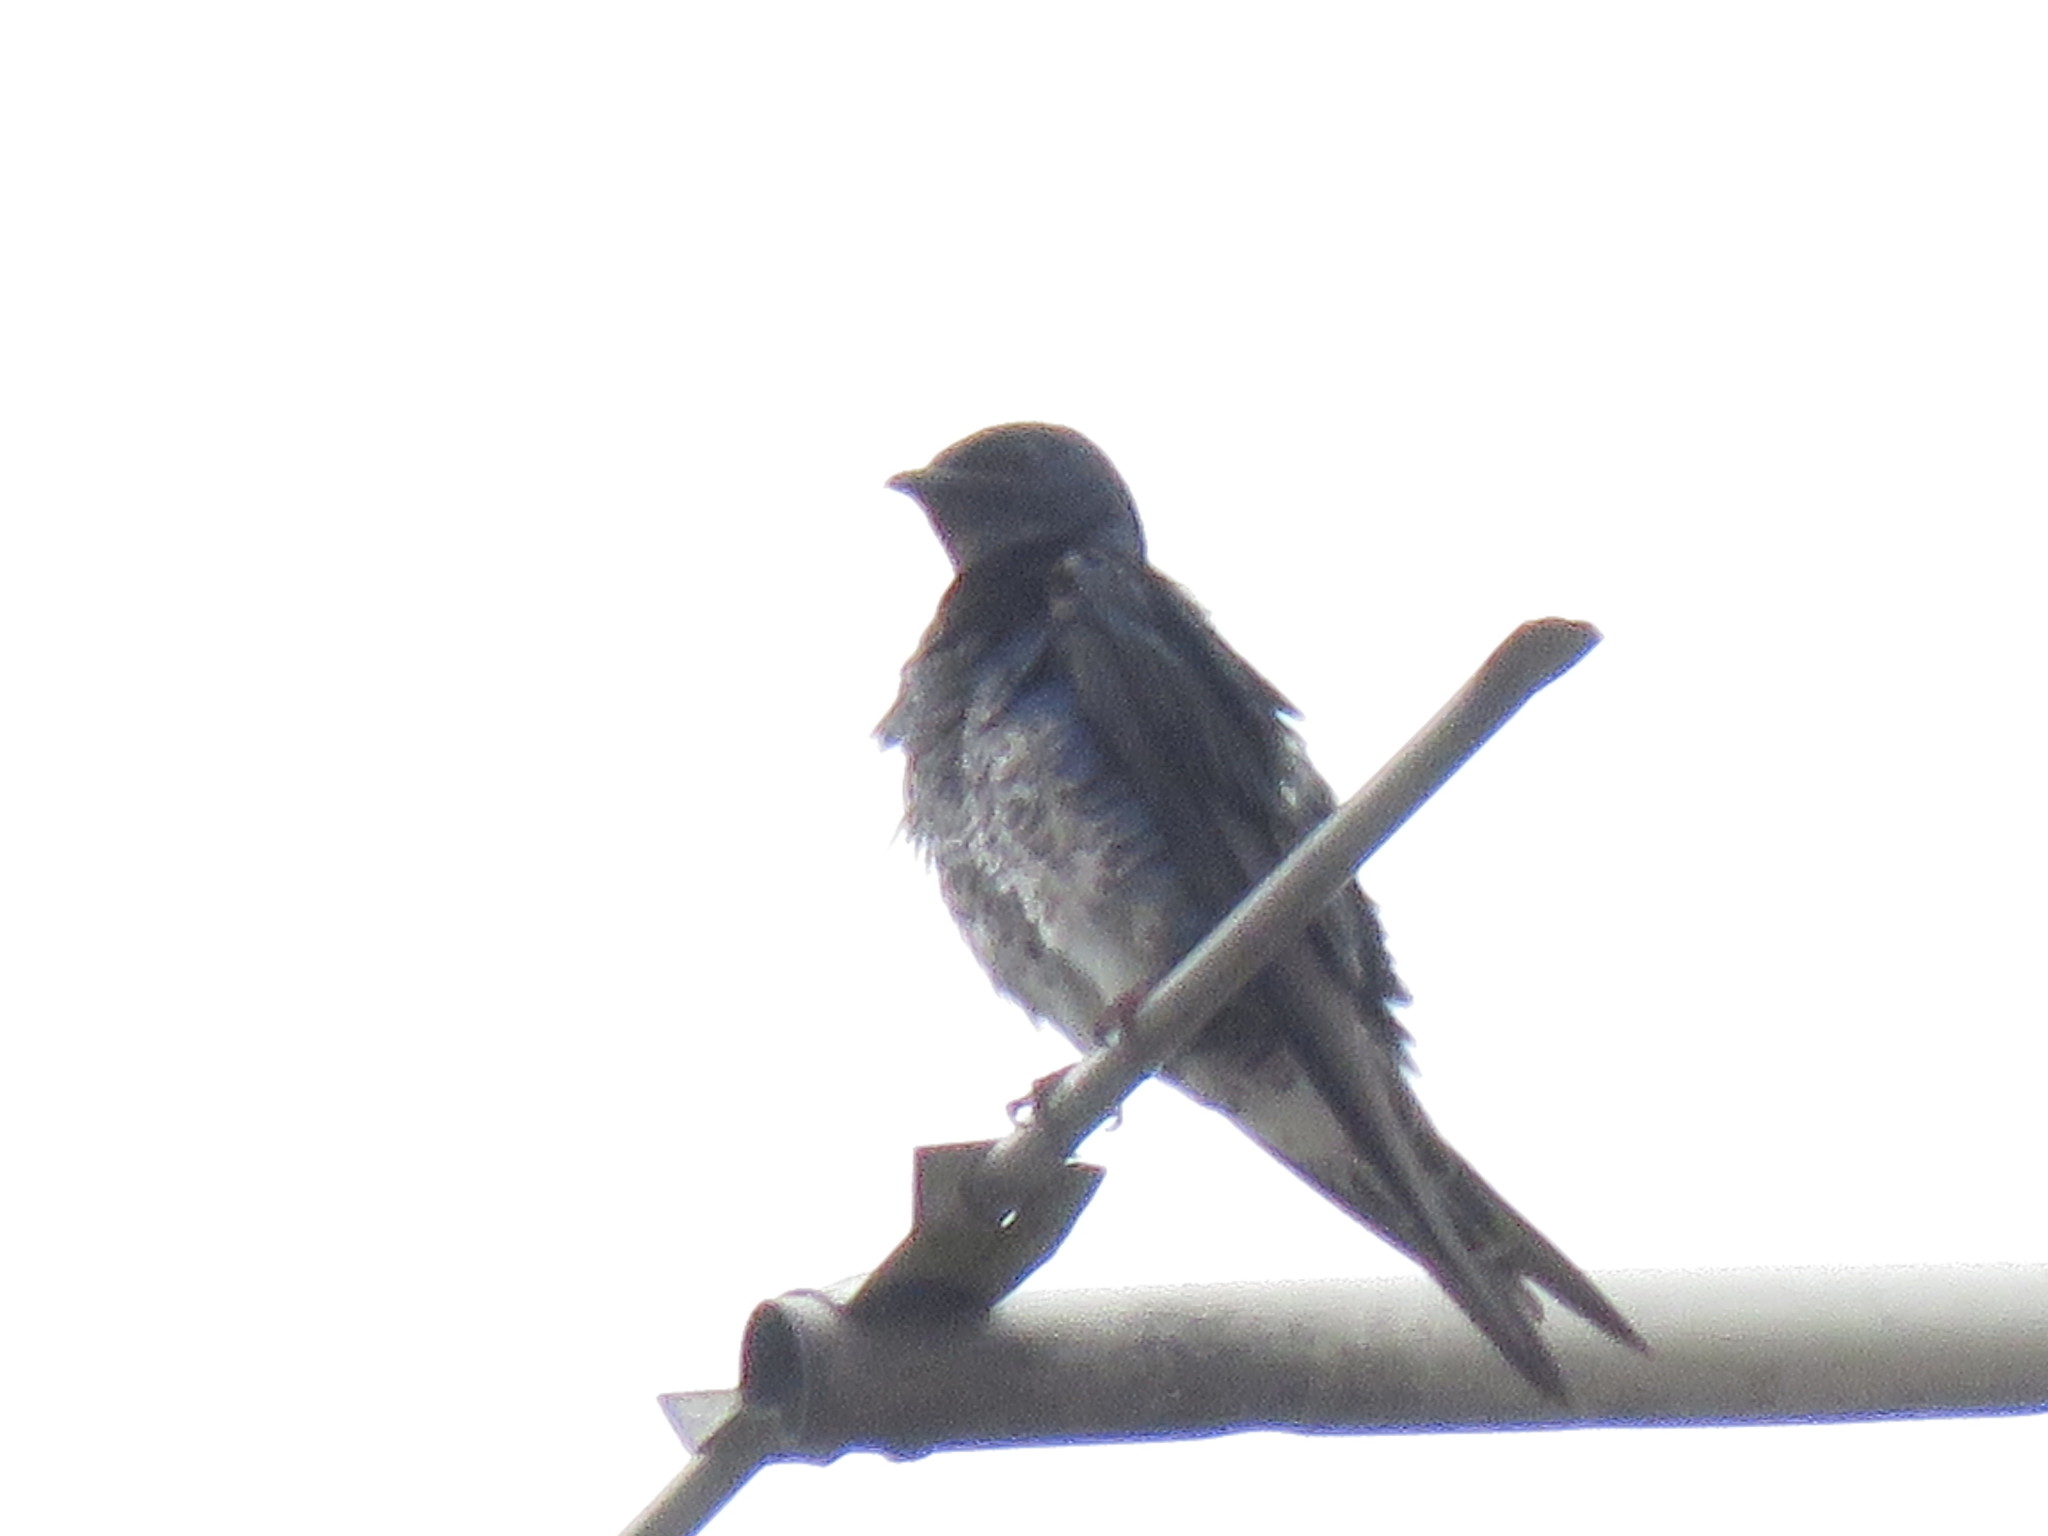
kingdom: Animalia
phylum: Chordata
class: Aves
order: Passeriformes
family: Hirundinidae
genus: Progne
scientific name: Progne chalybea
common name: Grey-breasted martin
